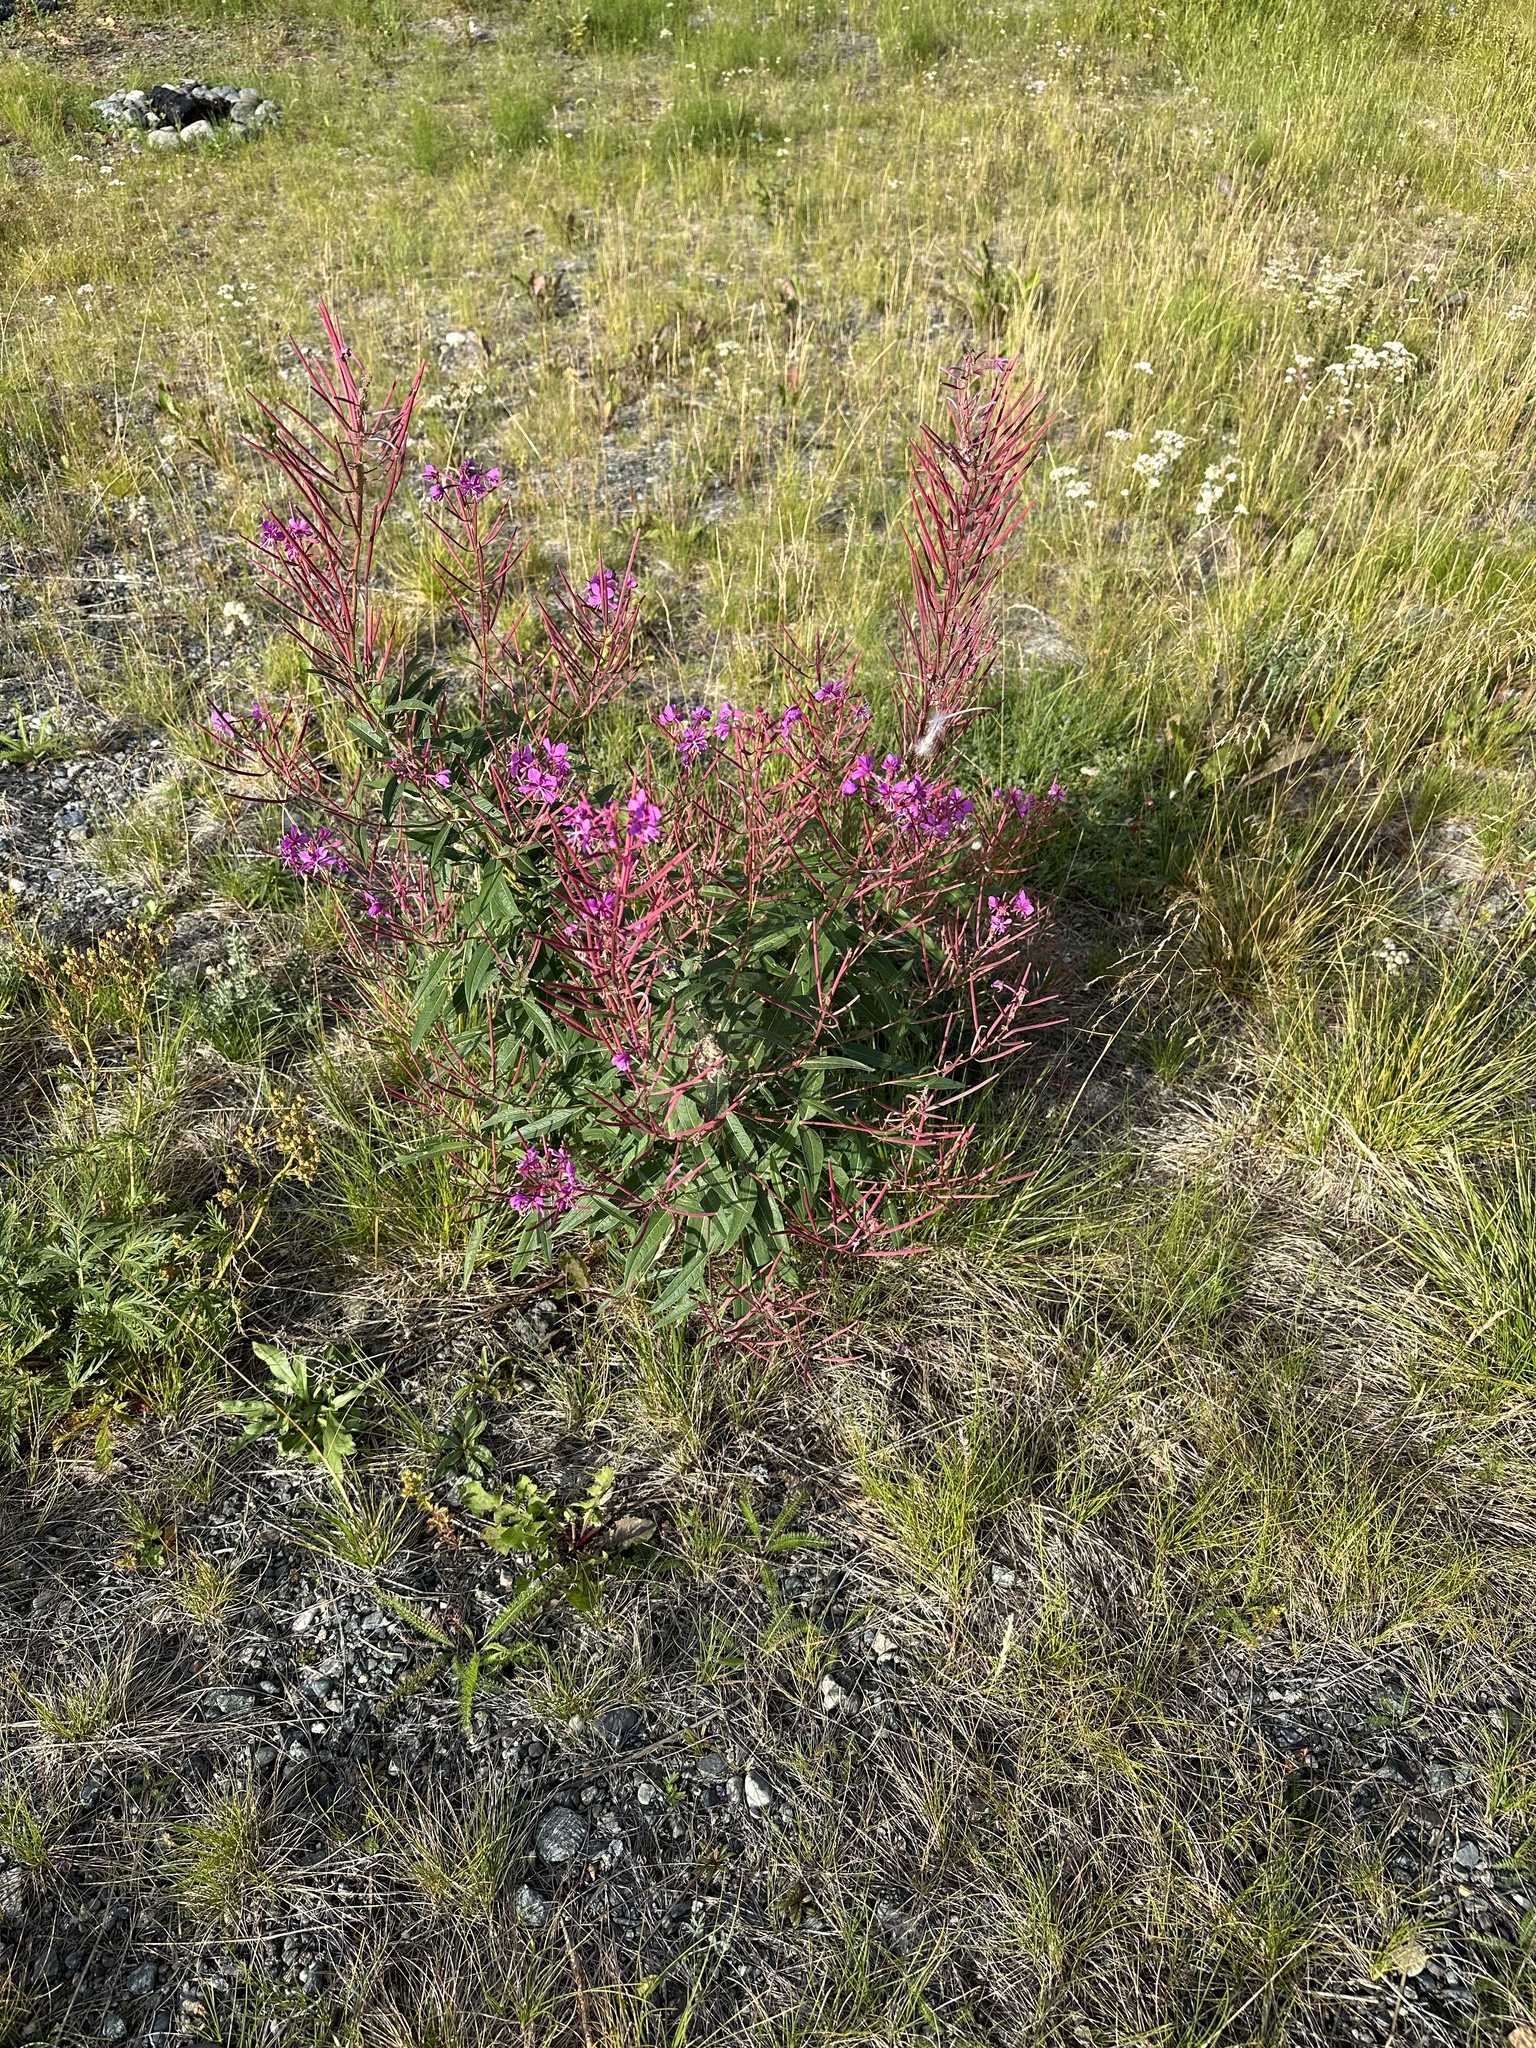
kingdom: Plantae
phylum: Tracheophyta
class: Magnoliopsida
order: Myrtales
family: Onagraceae
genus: Chamaenerion
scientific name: Chamaenerion angustifolium
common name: Fireweed
